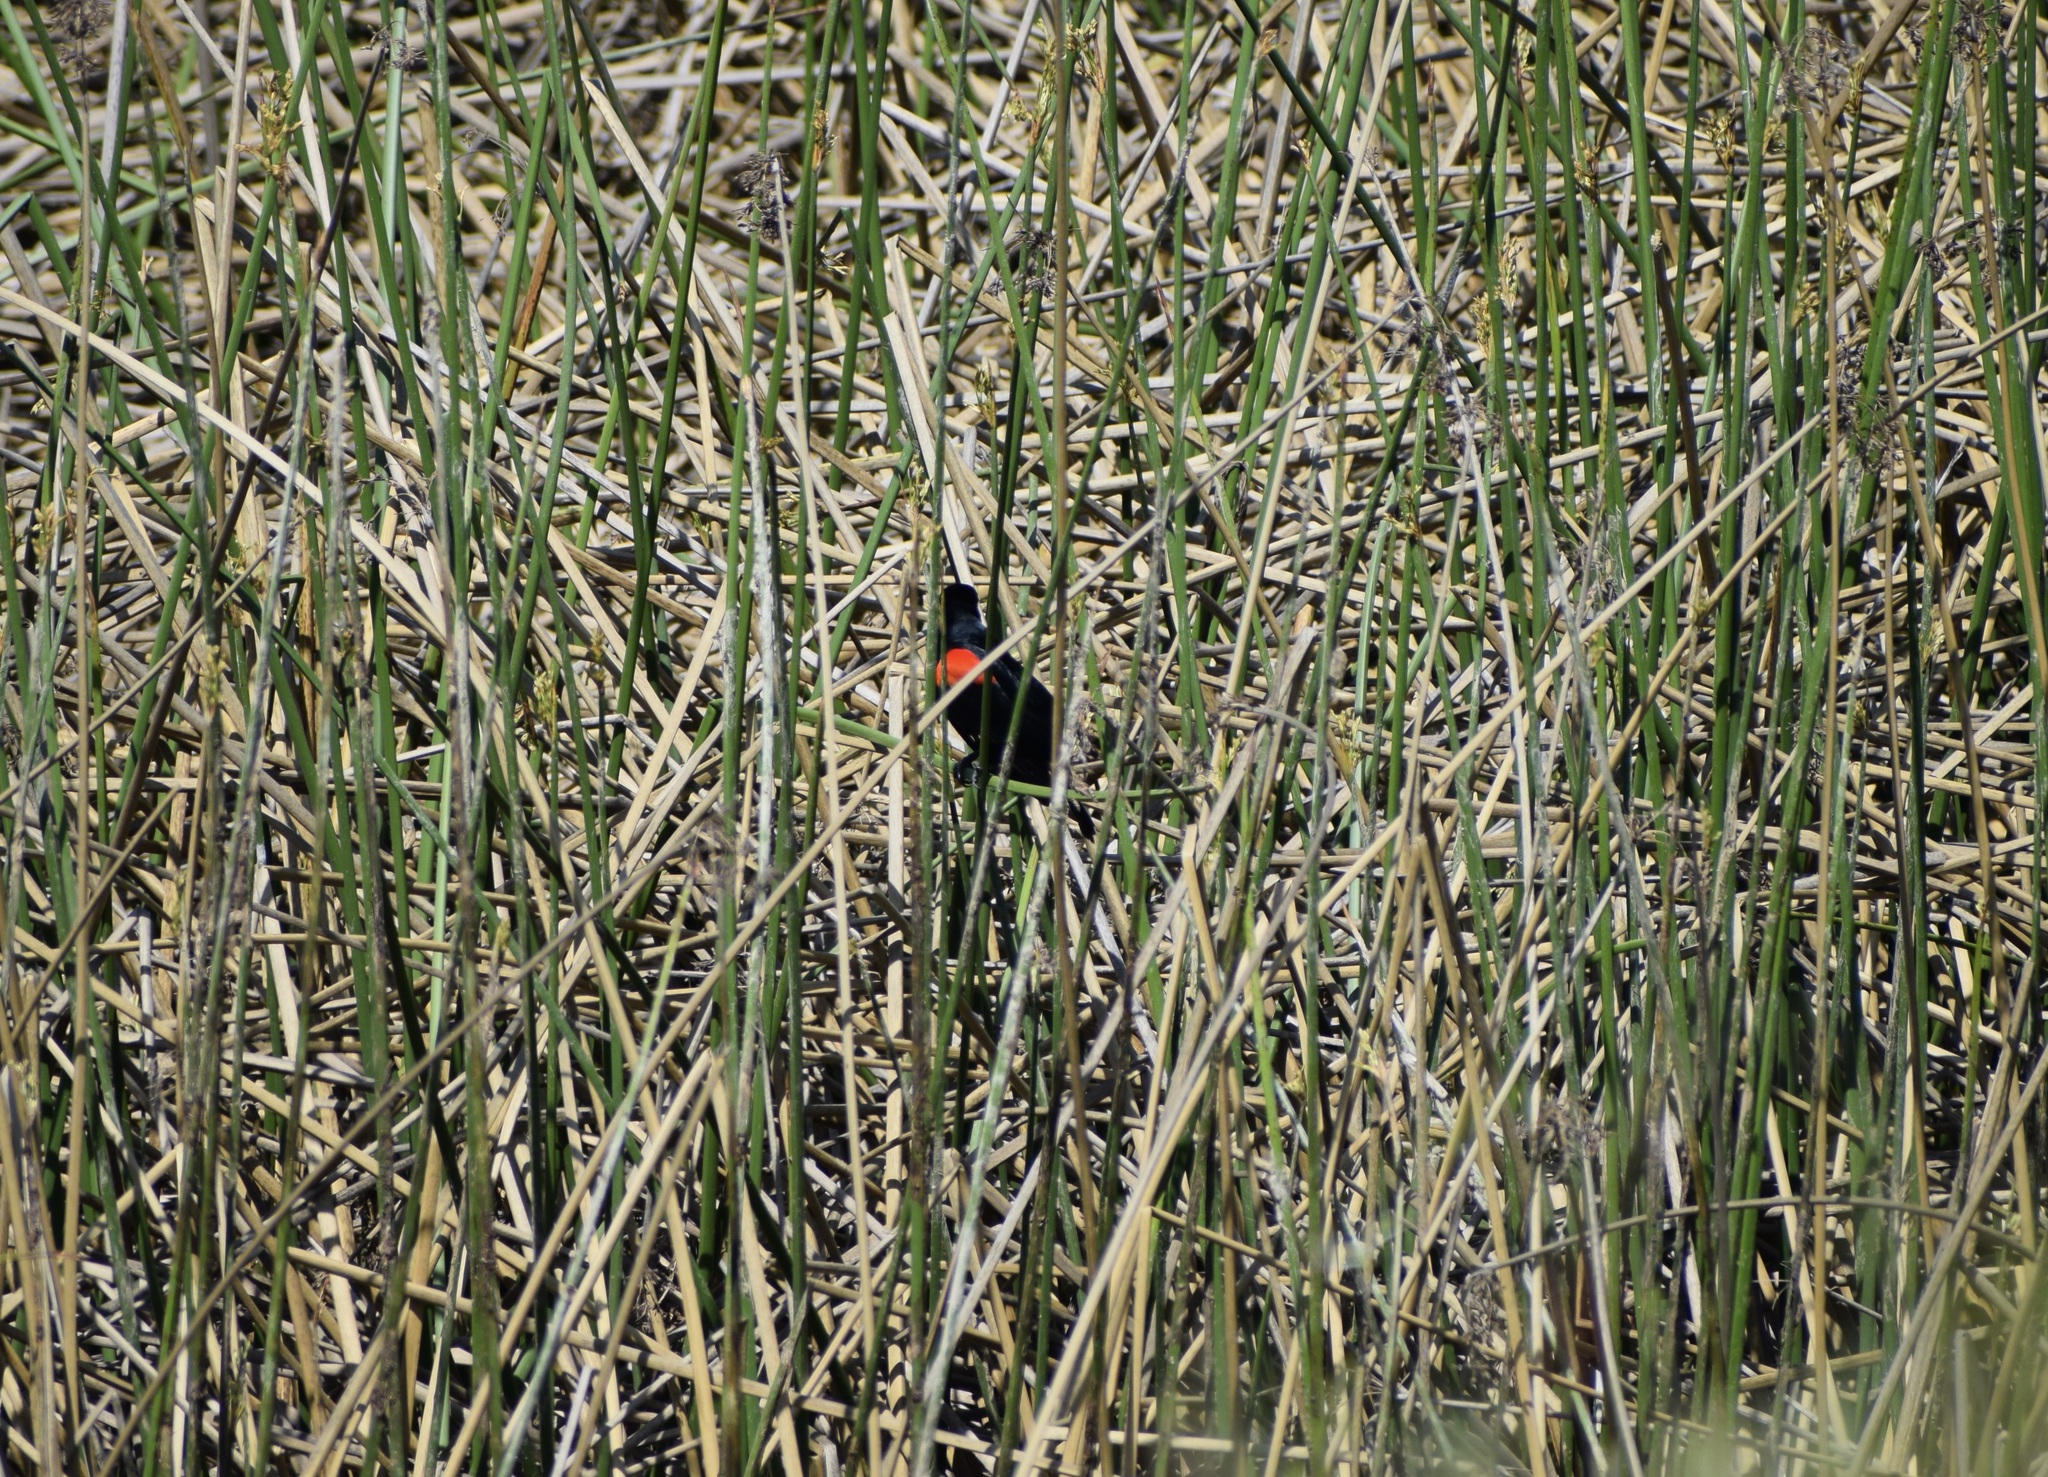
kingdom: Animalia
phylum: Chordata
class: Aves
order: Passeriformes
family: Icteridae
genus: Agelaius
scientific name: Agelaius phoeniceus
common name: Red-winged blackbird
